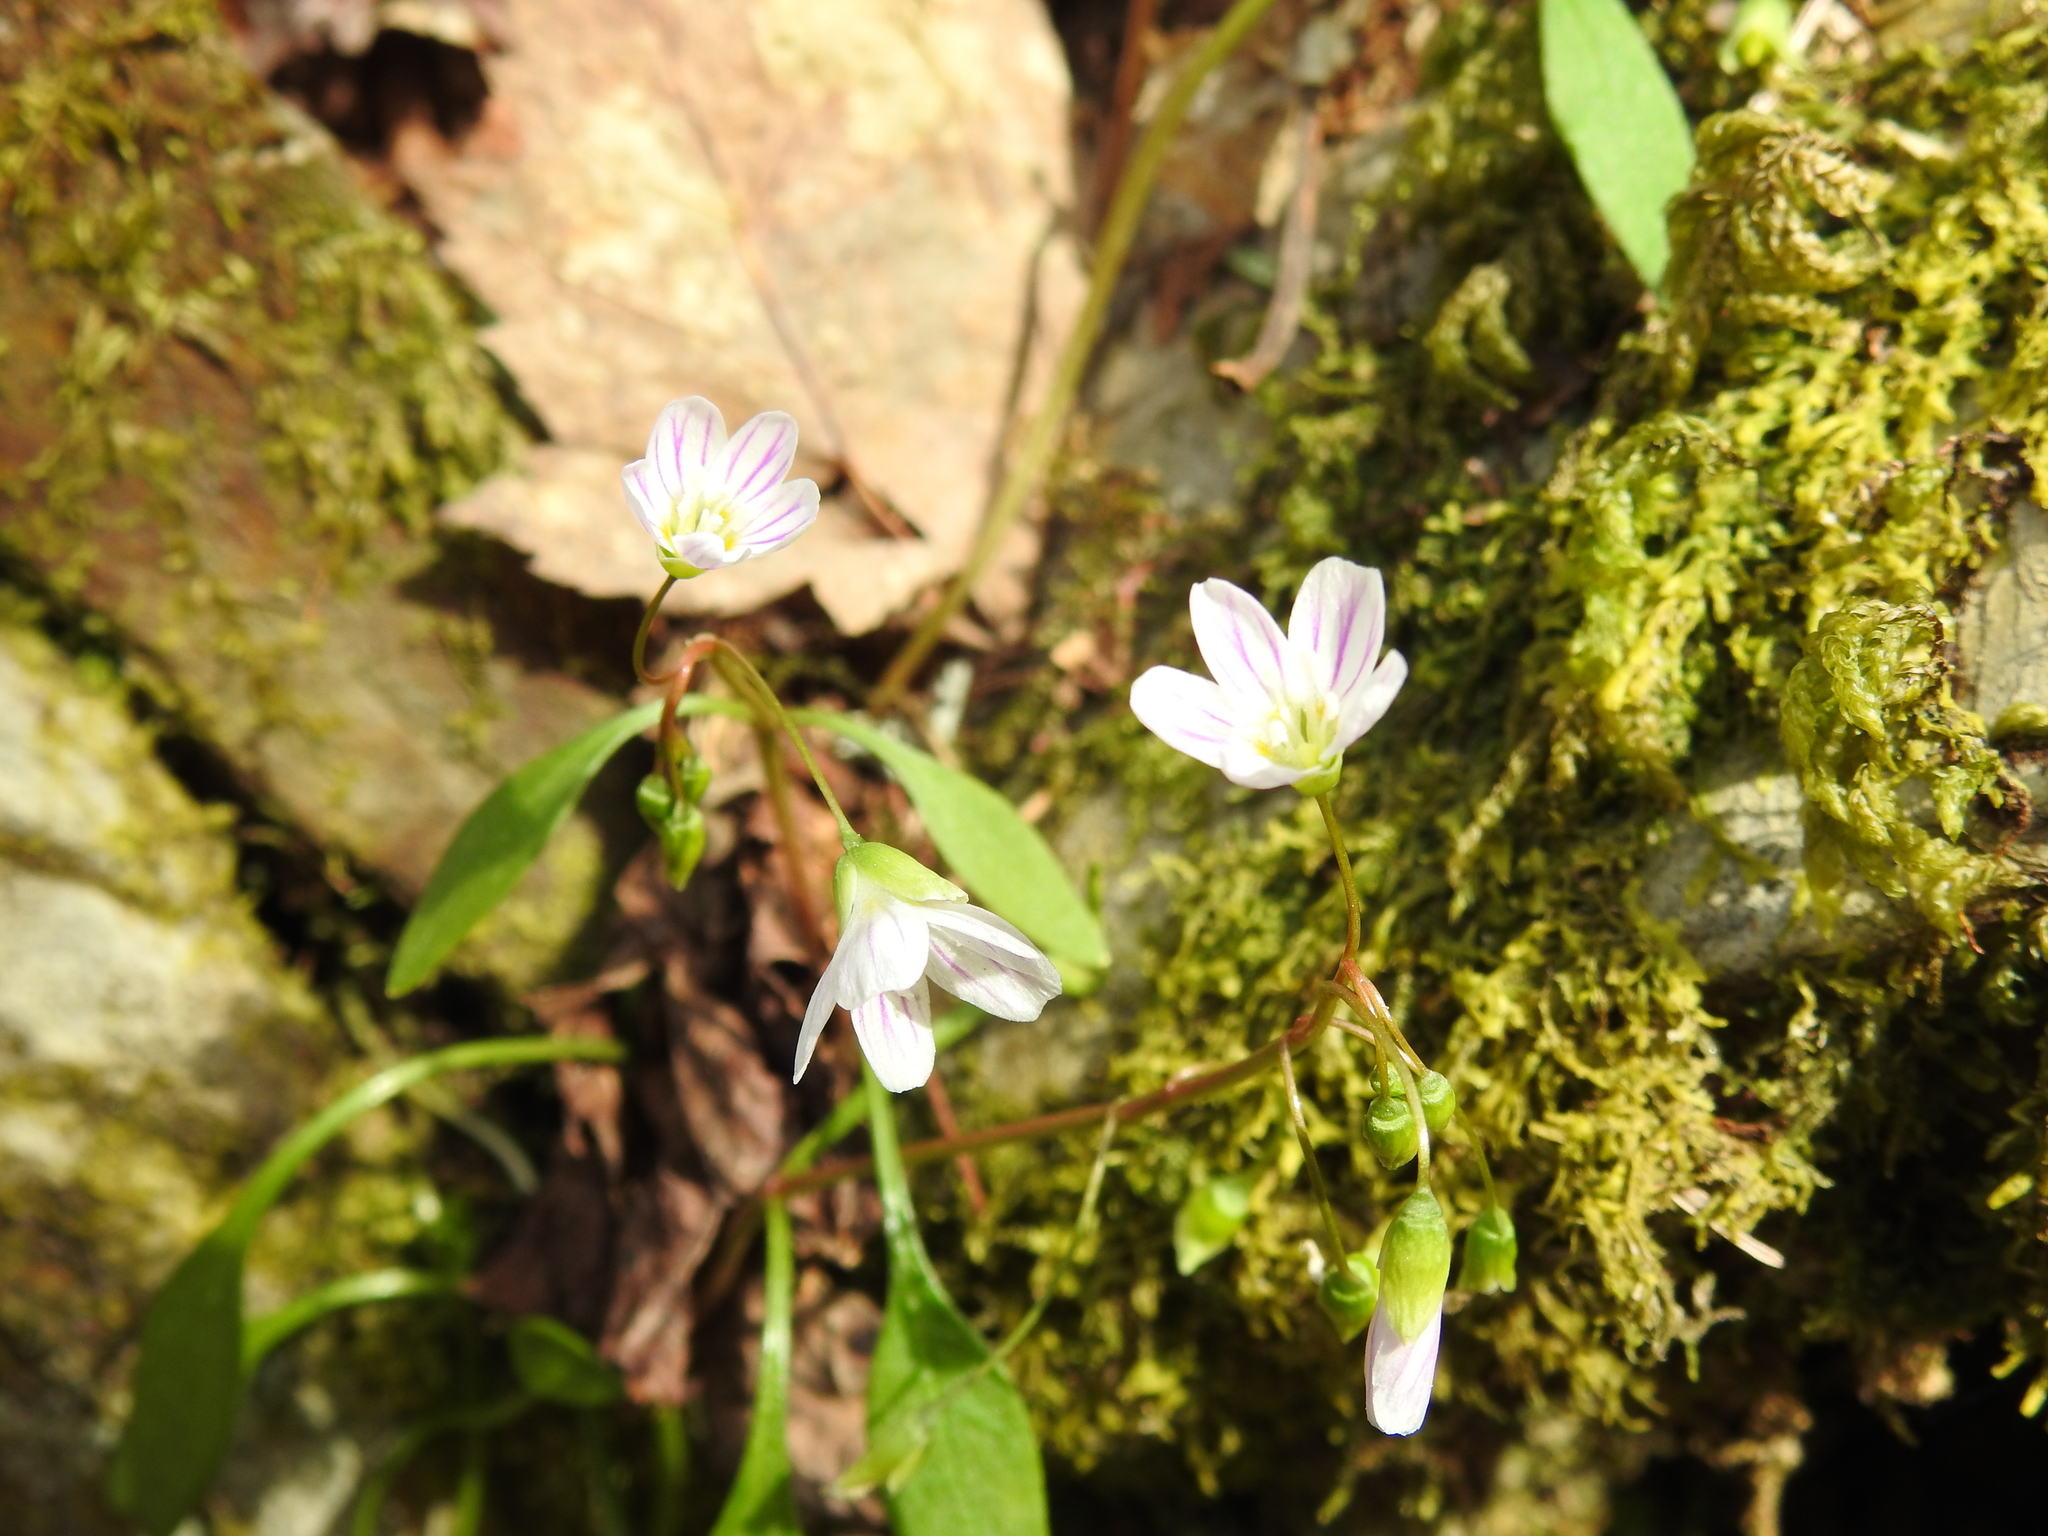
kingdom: Plantae
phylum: Tracheophyta
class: Magnoliopsida
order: Caryophyllales
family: Montiaceae
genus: Claytonia
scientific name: Claytonia caroliniana
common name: Carolina spring beauty
